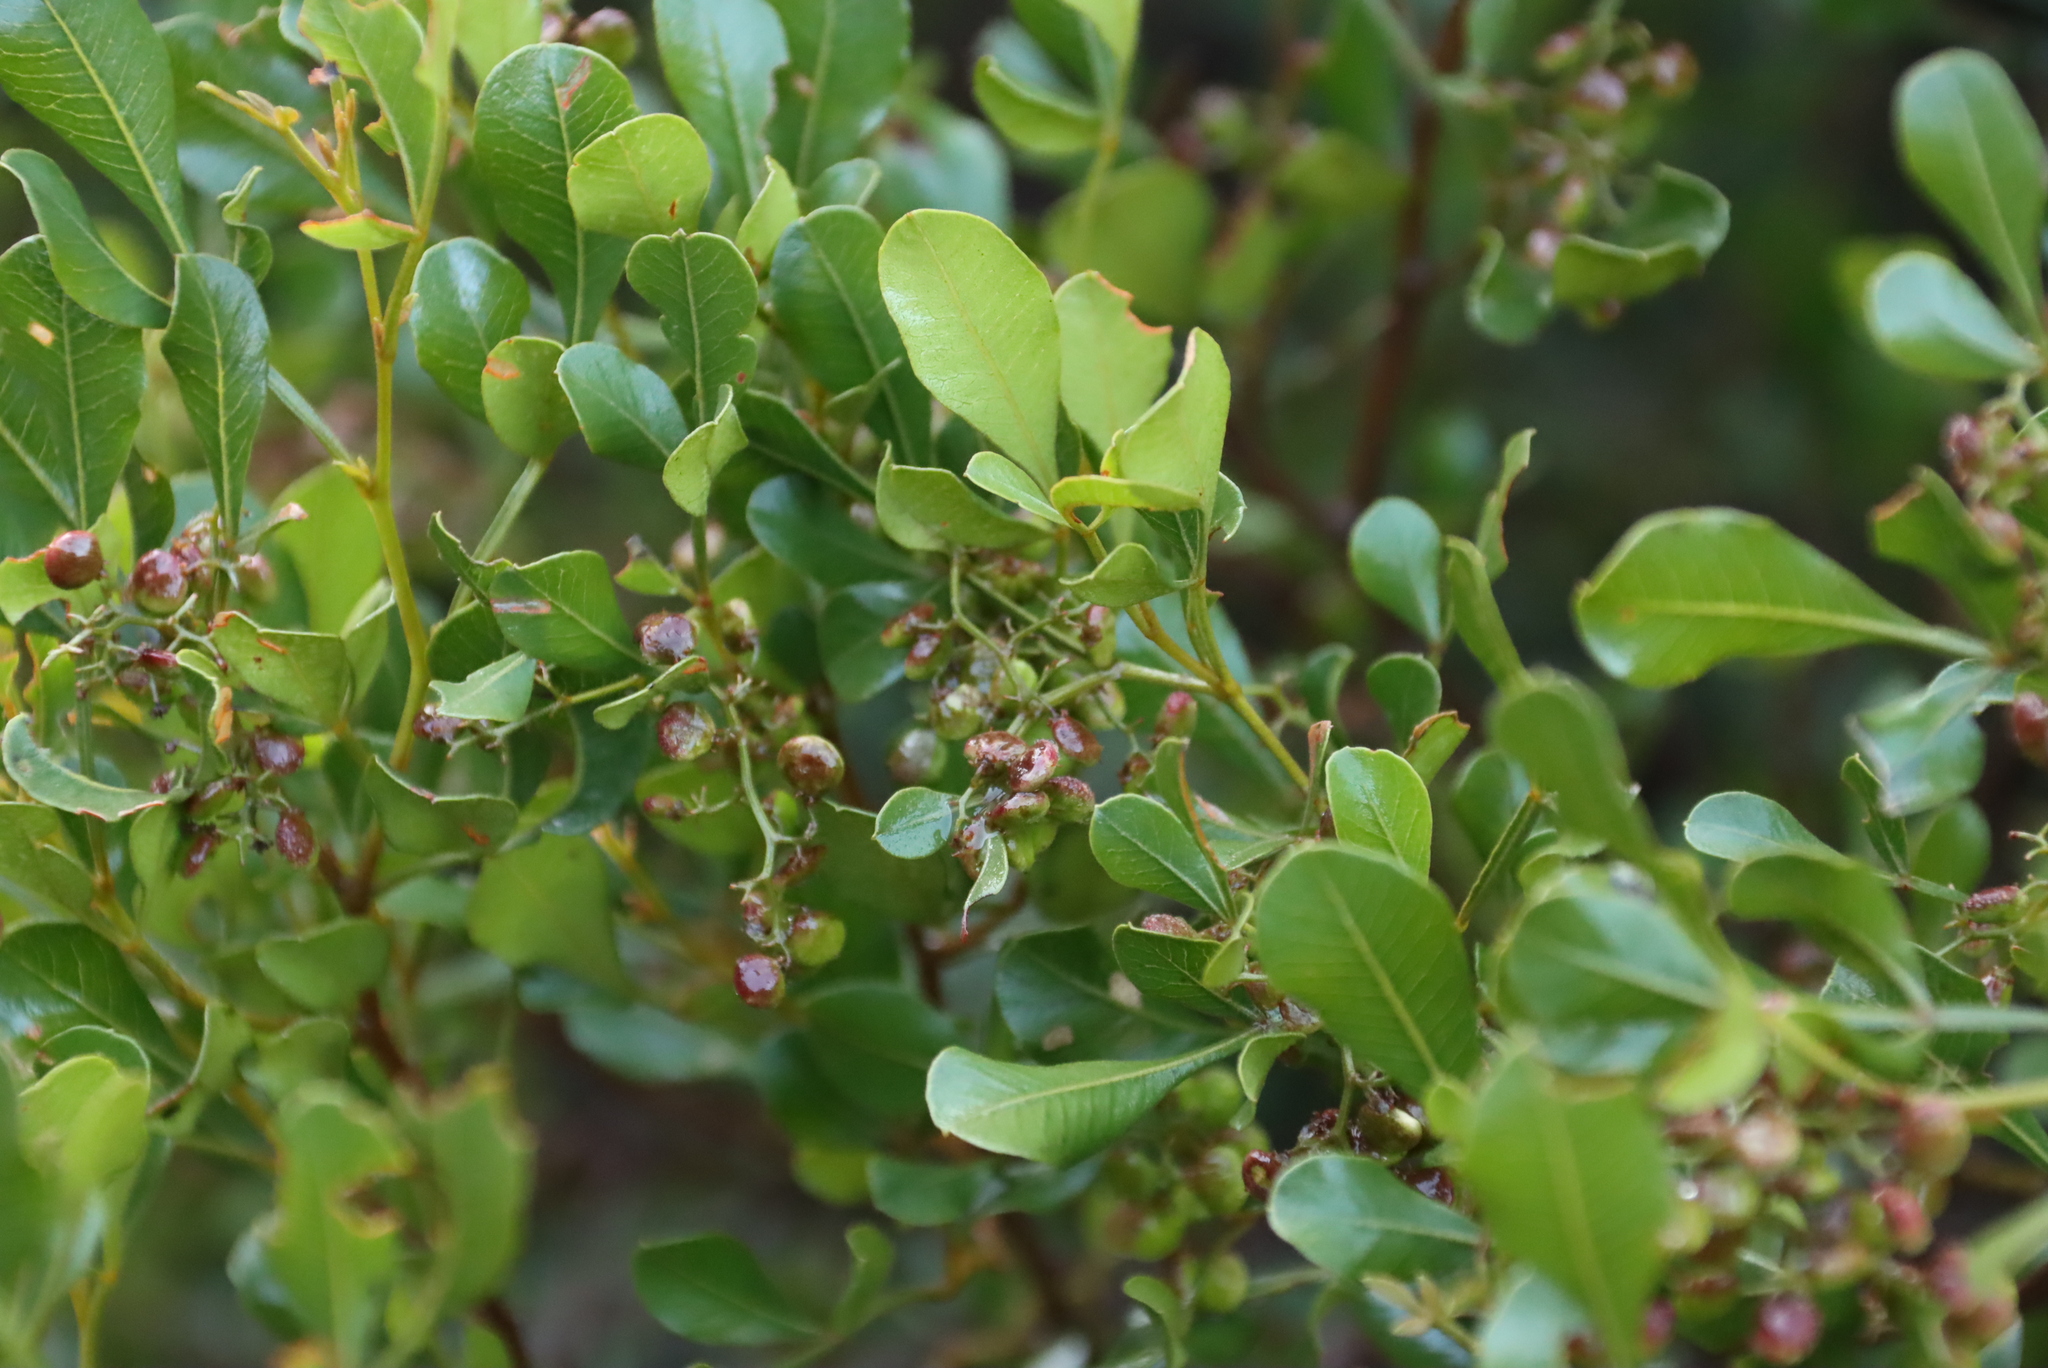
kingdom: Plantae
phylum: Tracheophyta
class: Magnoliopsida
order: Sapindales
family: Anacardiaceae
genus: Searsia
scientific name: Searsia lucida
